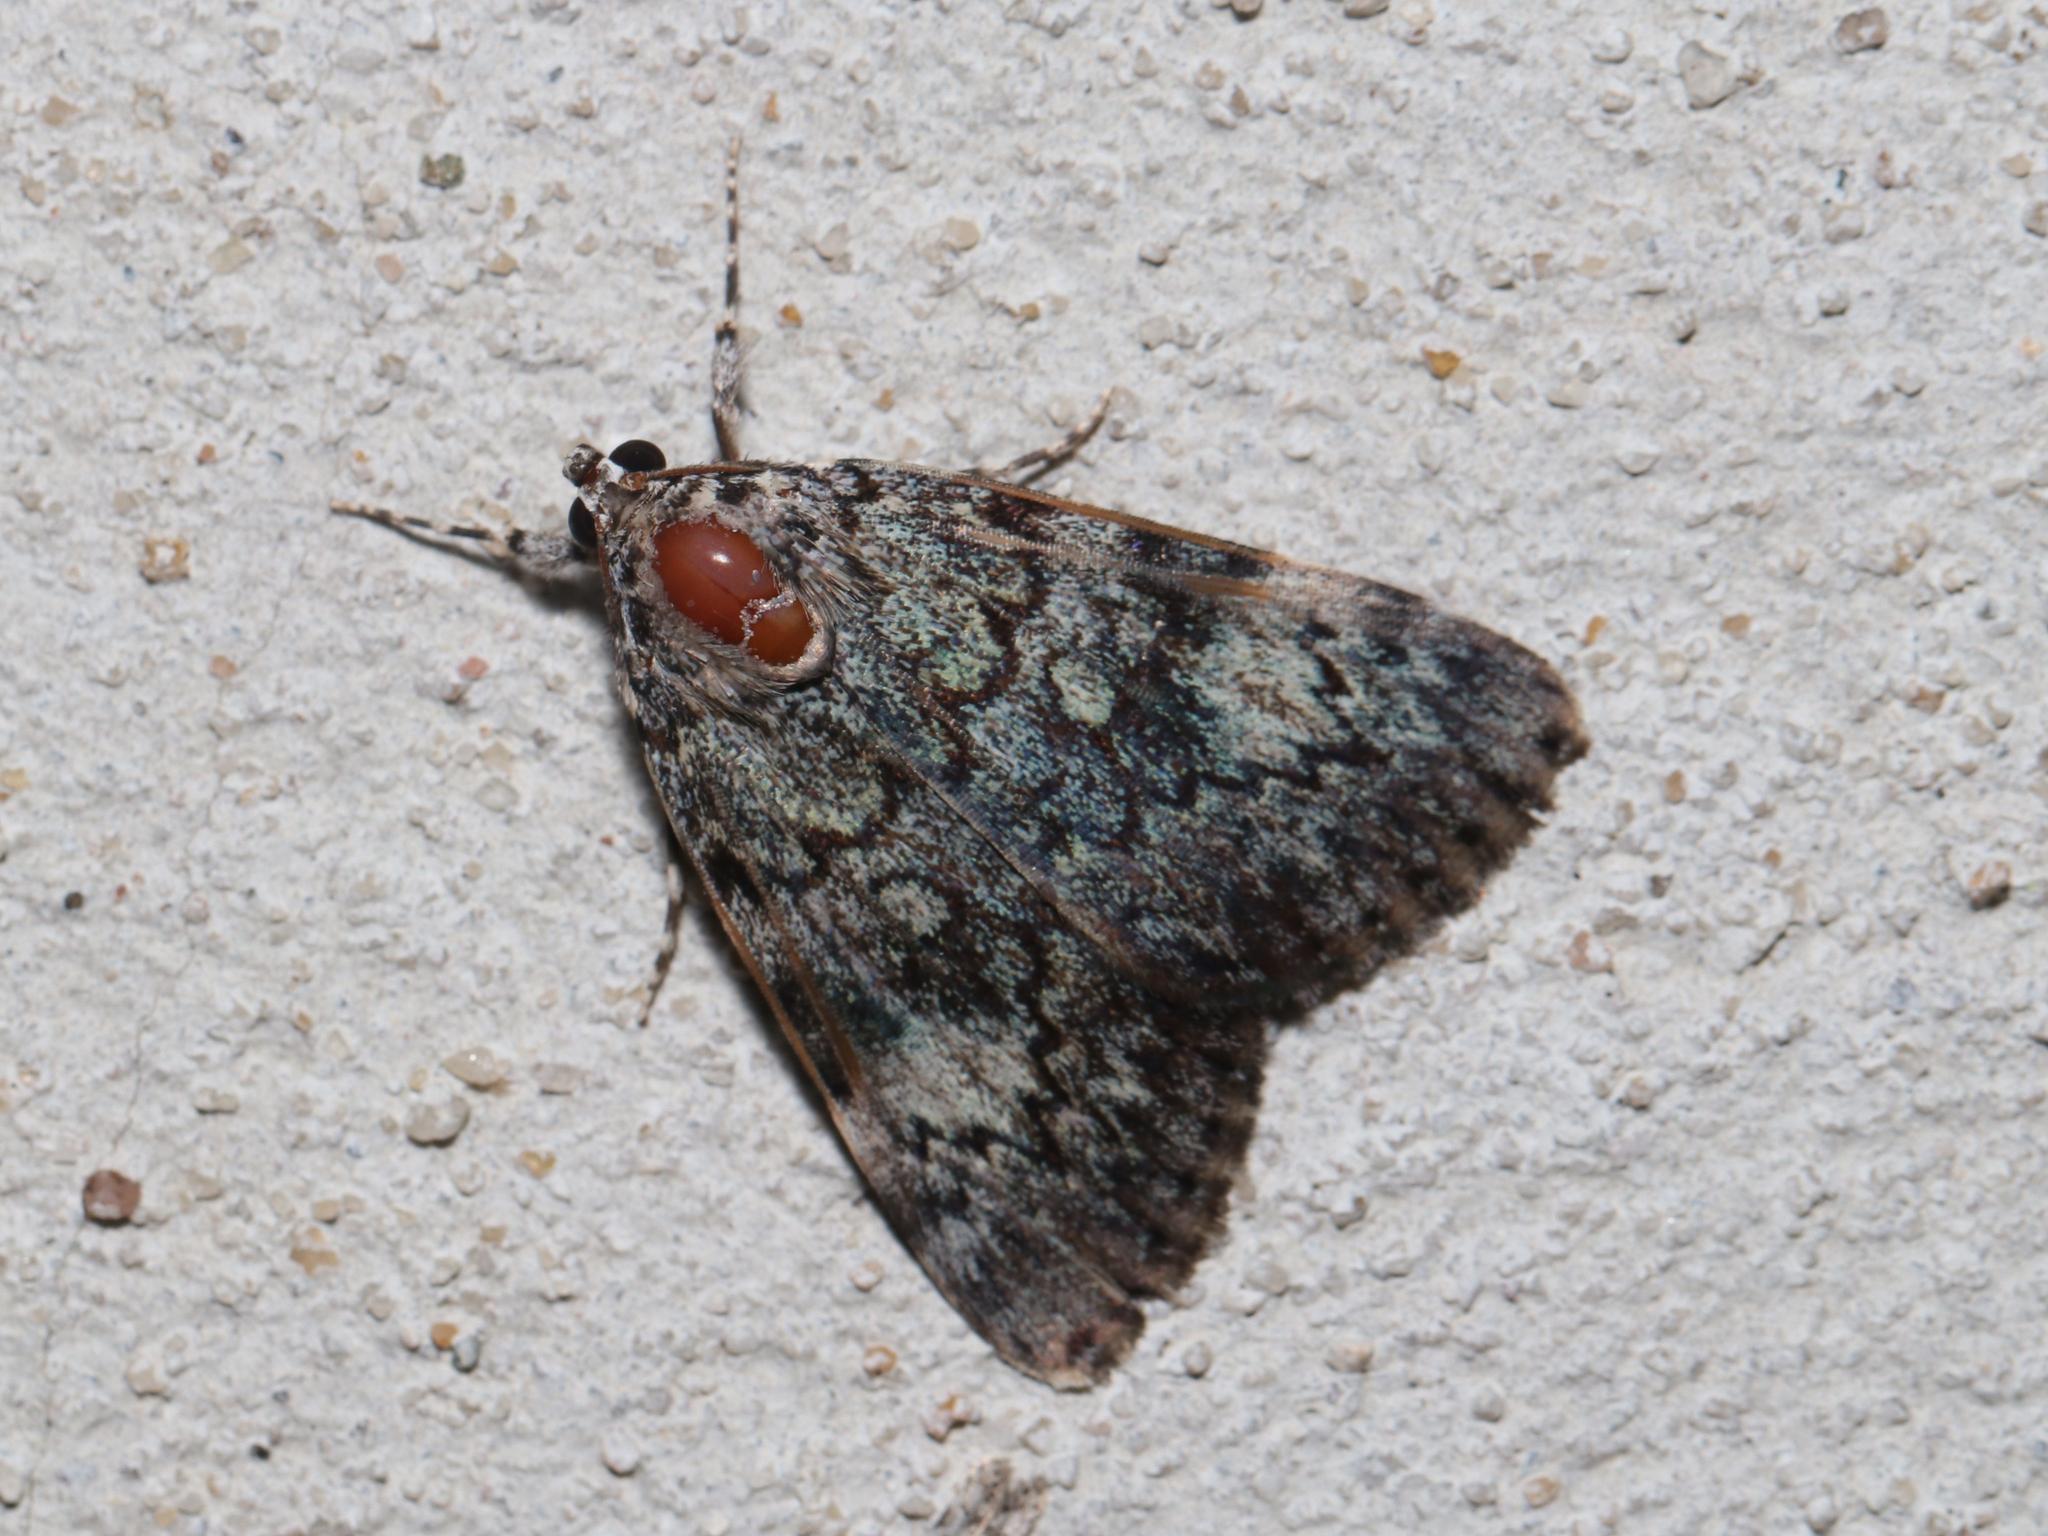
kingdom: Animalia
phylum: Arthropoda
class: Insecta
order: Lepidoptera
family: Erebidae
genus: Catocala
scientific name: Catocala lineella
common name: Little lined underwing
